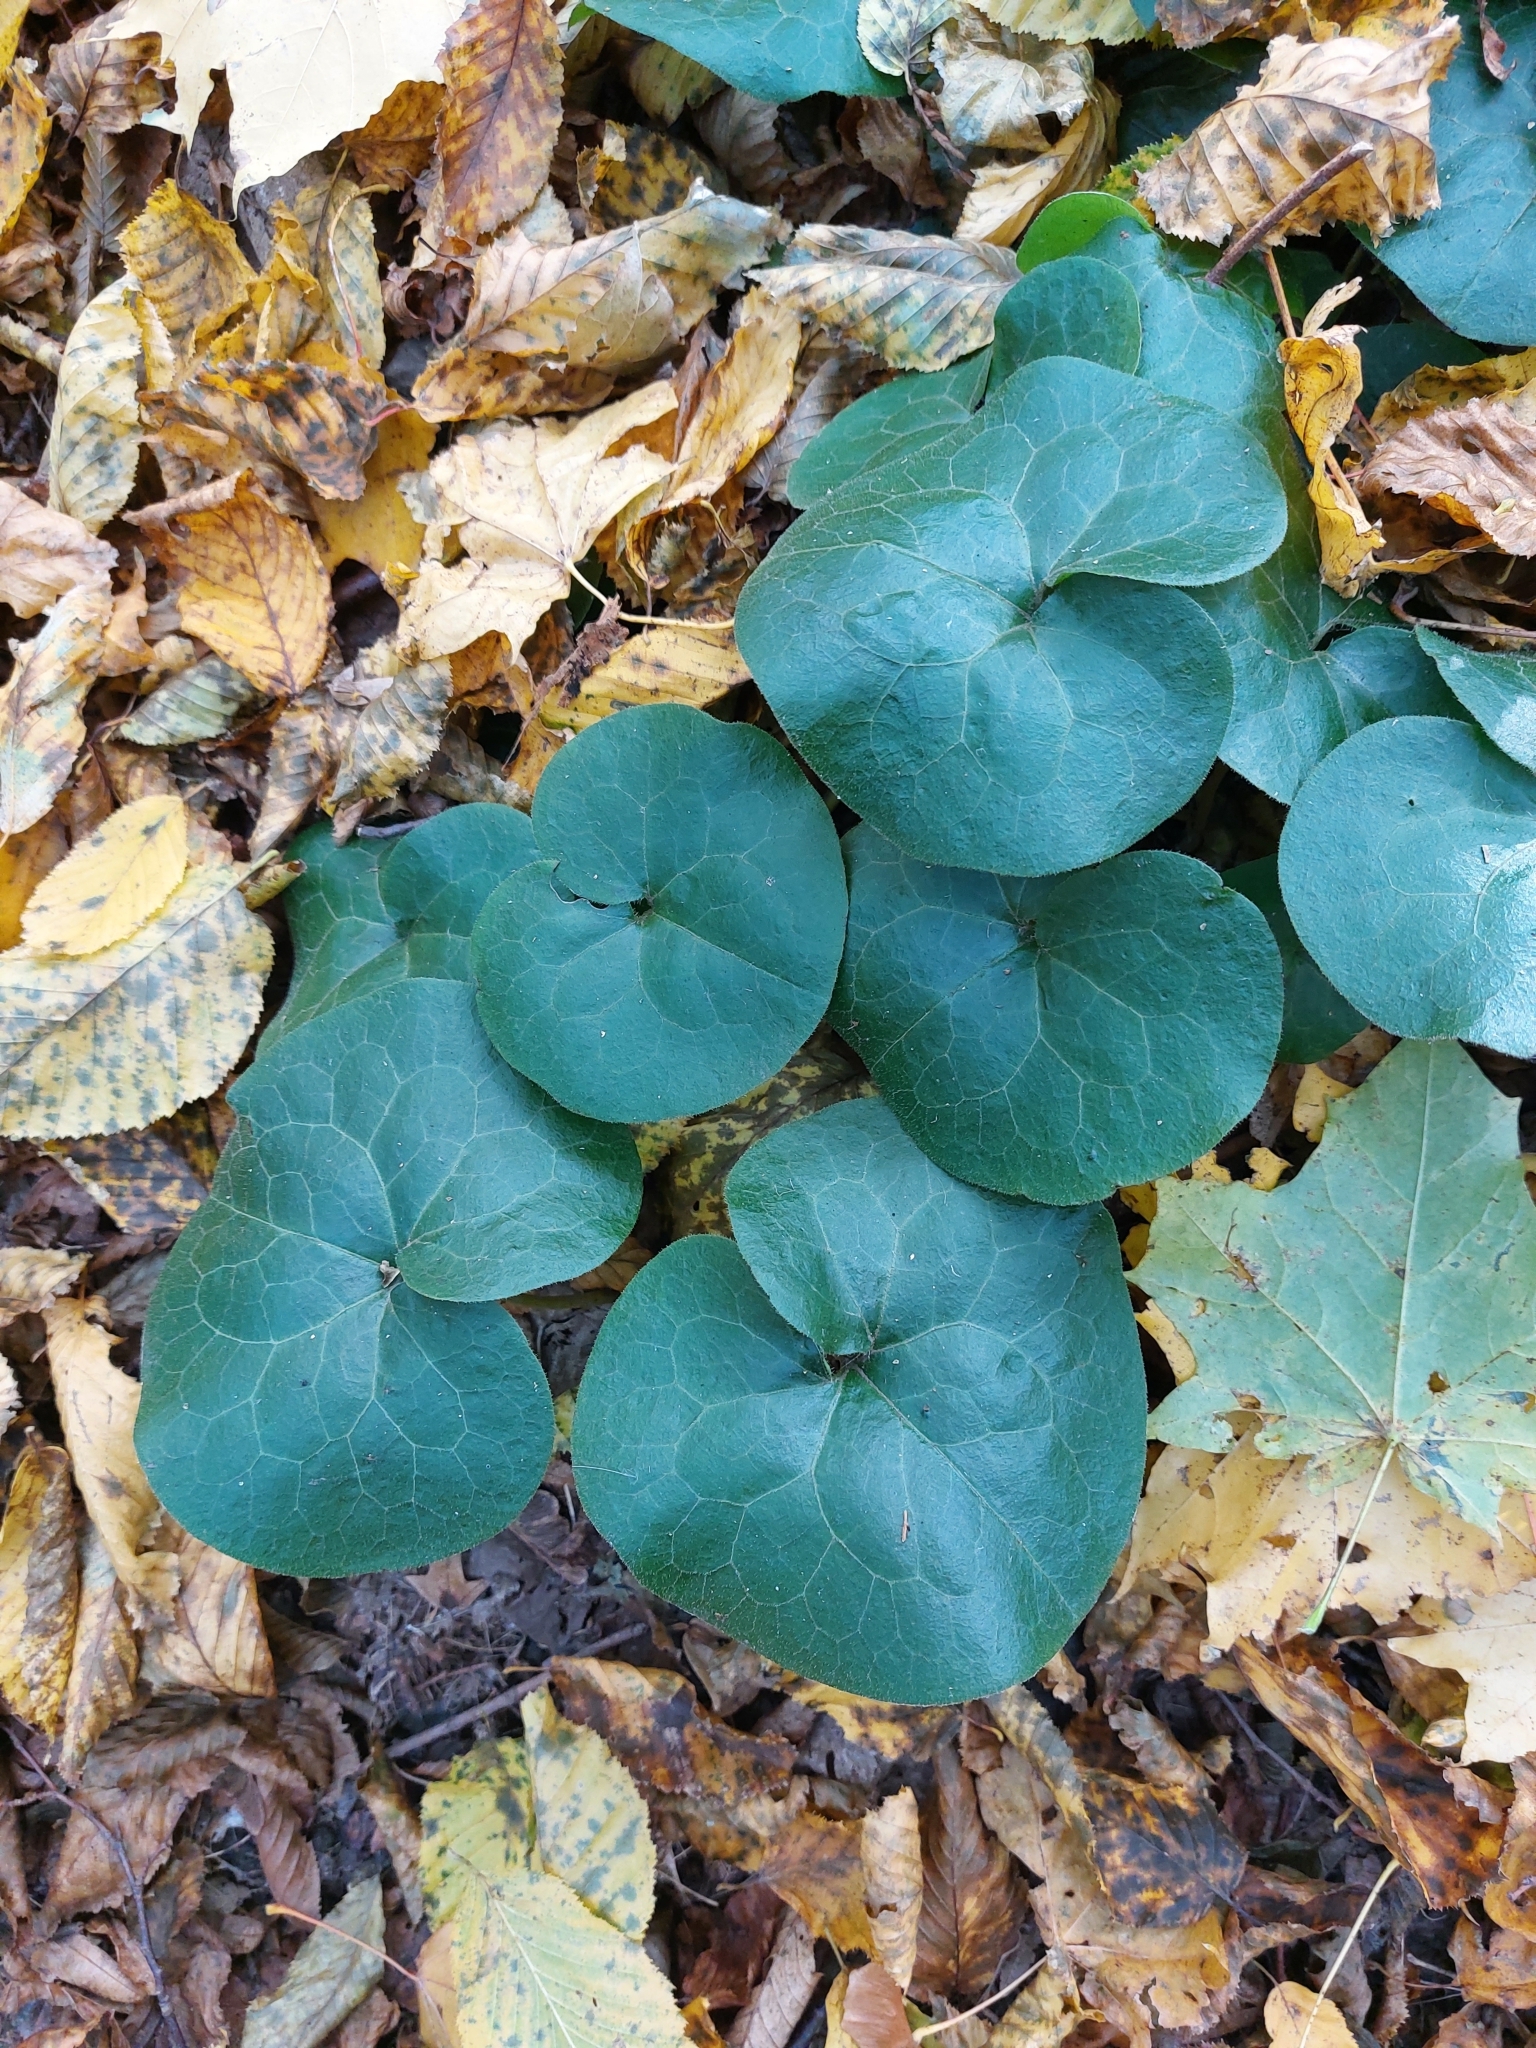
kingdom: Plantae
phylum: Tracheophyta
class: Magnoliopsida
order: Piperales
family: Aristolochiaceae
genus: Asarum
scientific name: Asarum europaeum
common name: Asarabacca
